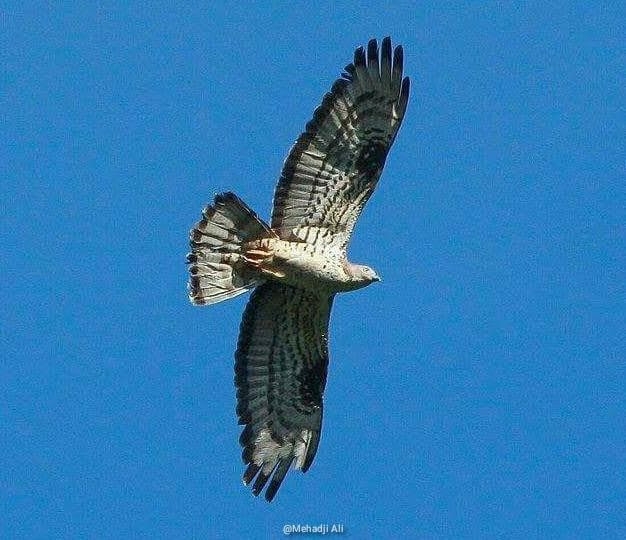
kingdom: Animalia
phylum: Chordata
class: Aves
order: Accipitriformes
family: Accipitridae
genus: Pernis
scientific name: Pernis apivorus
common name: European honey buzzard
